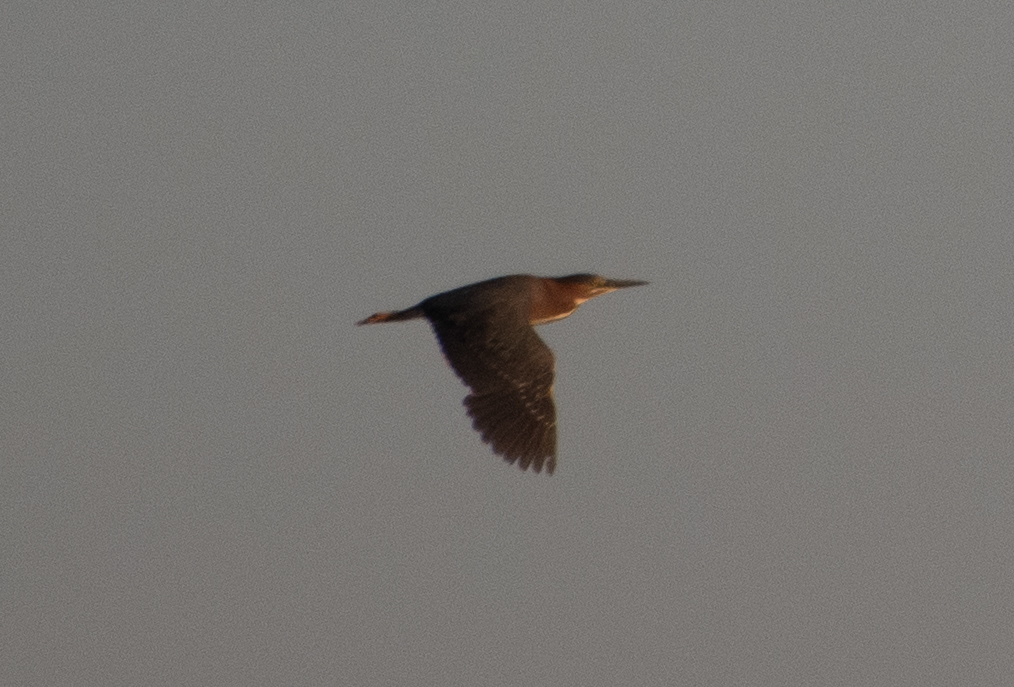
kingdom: Animalia
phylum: Chordata
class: Aves
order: Pelecaniformes
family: Ardeidae
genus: Butorides
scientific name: Butorides virescens
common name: Green heron
